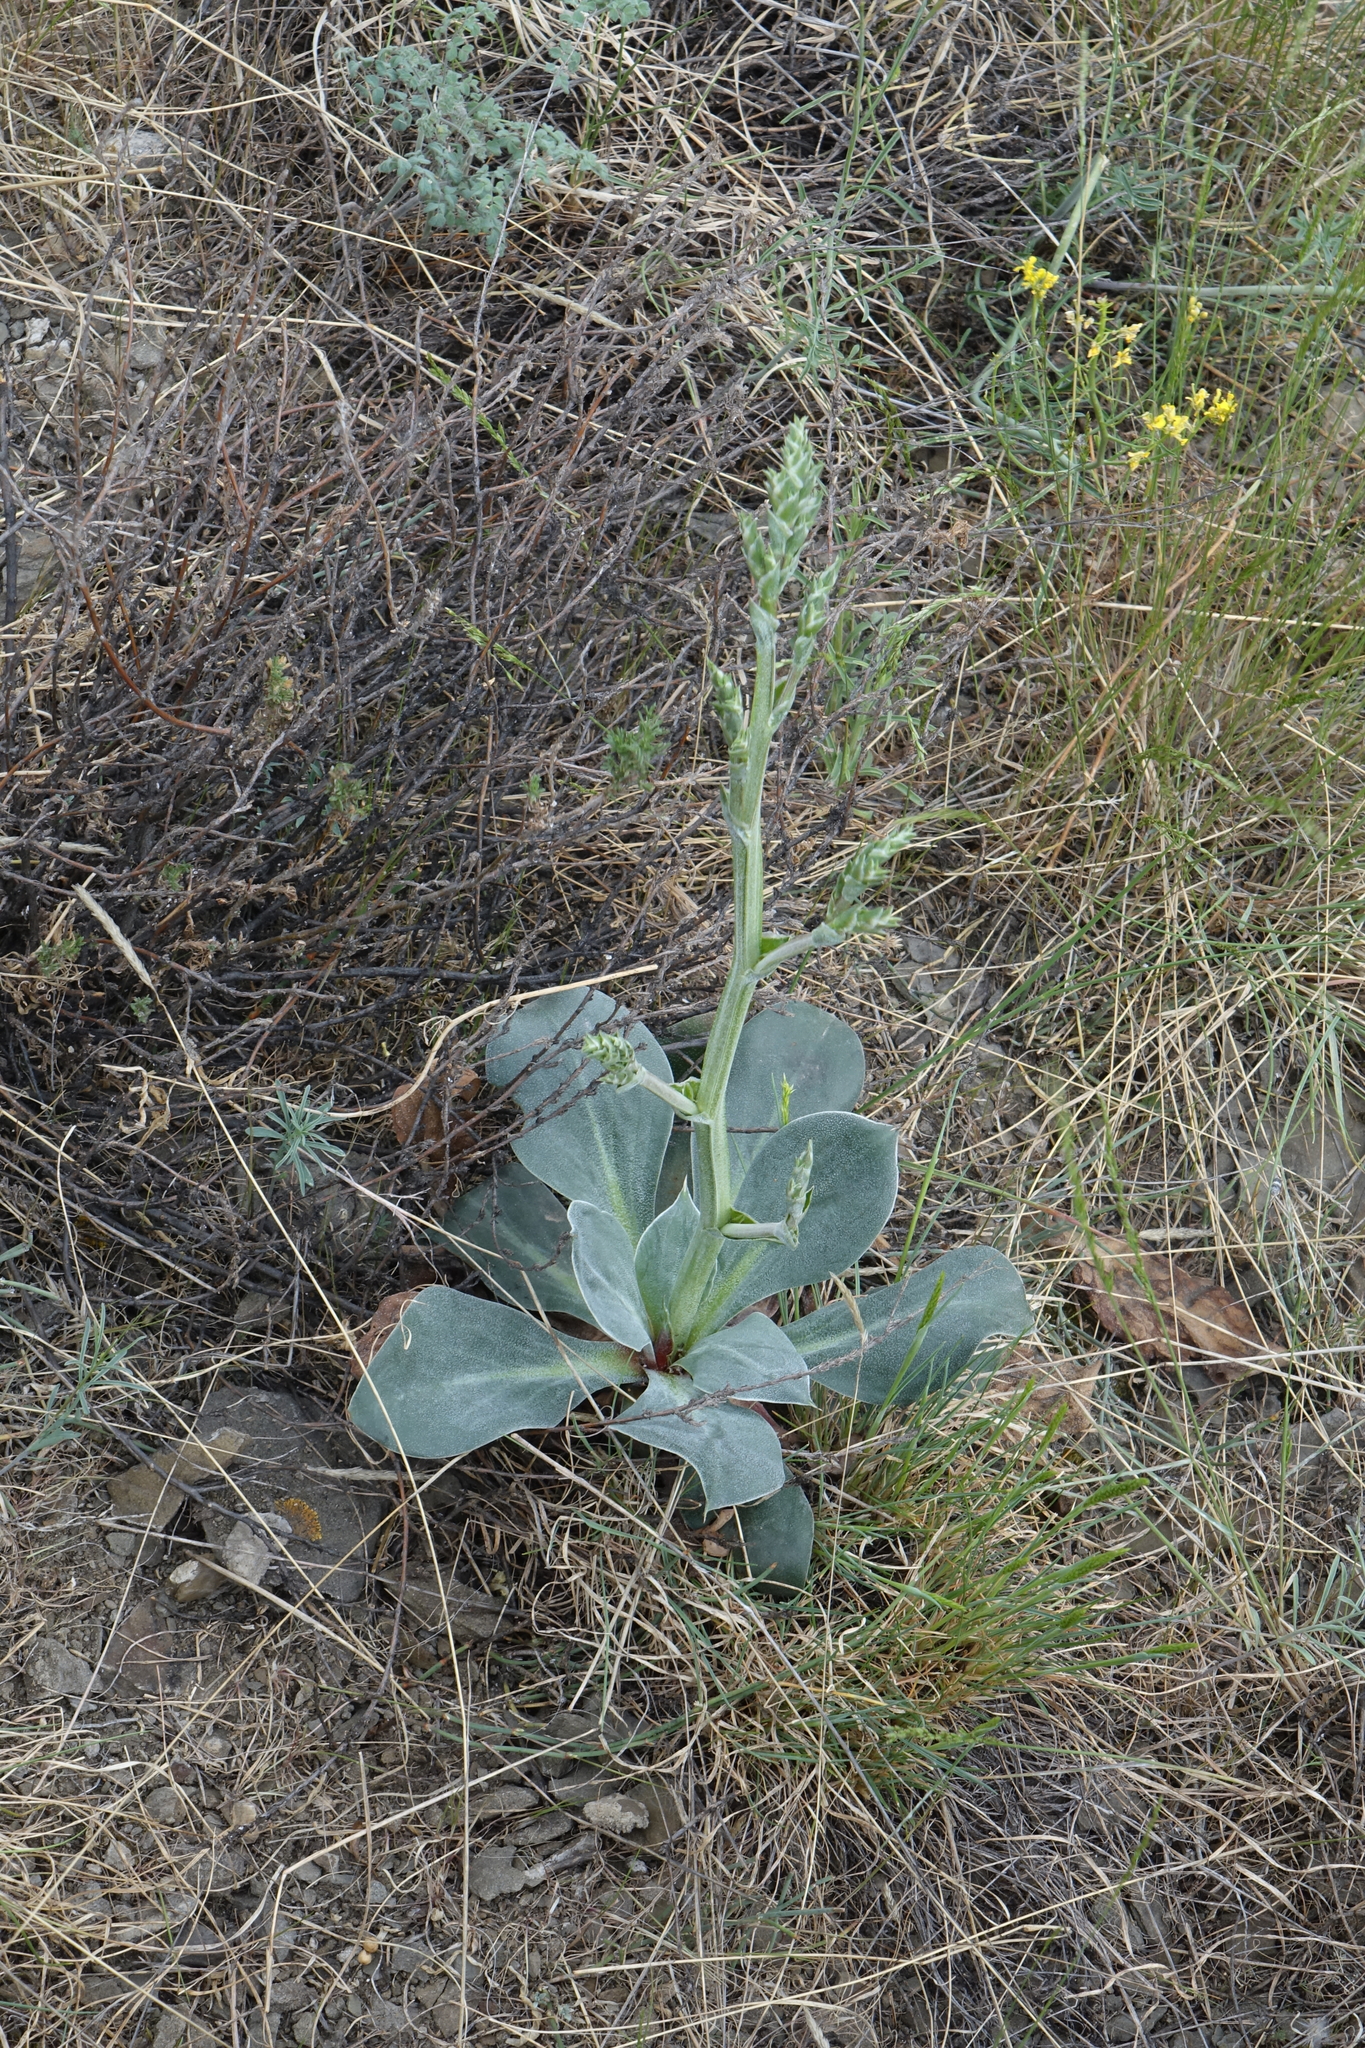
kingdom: Plantae
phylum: Tracheophyta
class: Magnoliopsida
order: Caryophyllales
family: Plumbaginaceae
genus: Goniolimon
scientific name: Goniolimon speciosum
